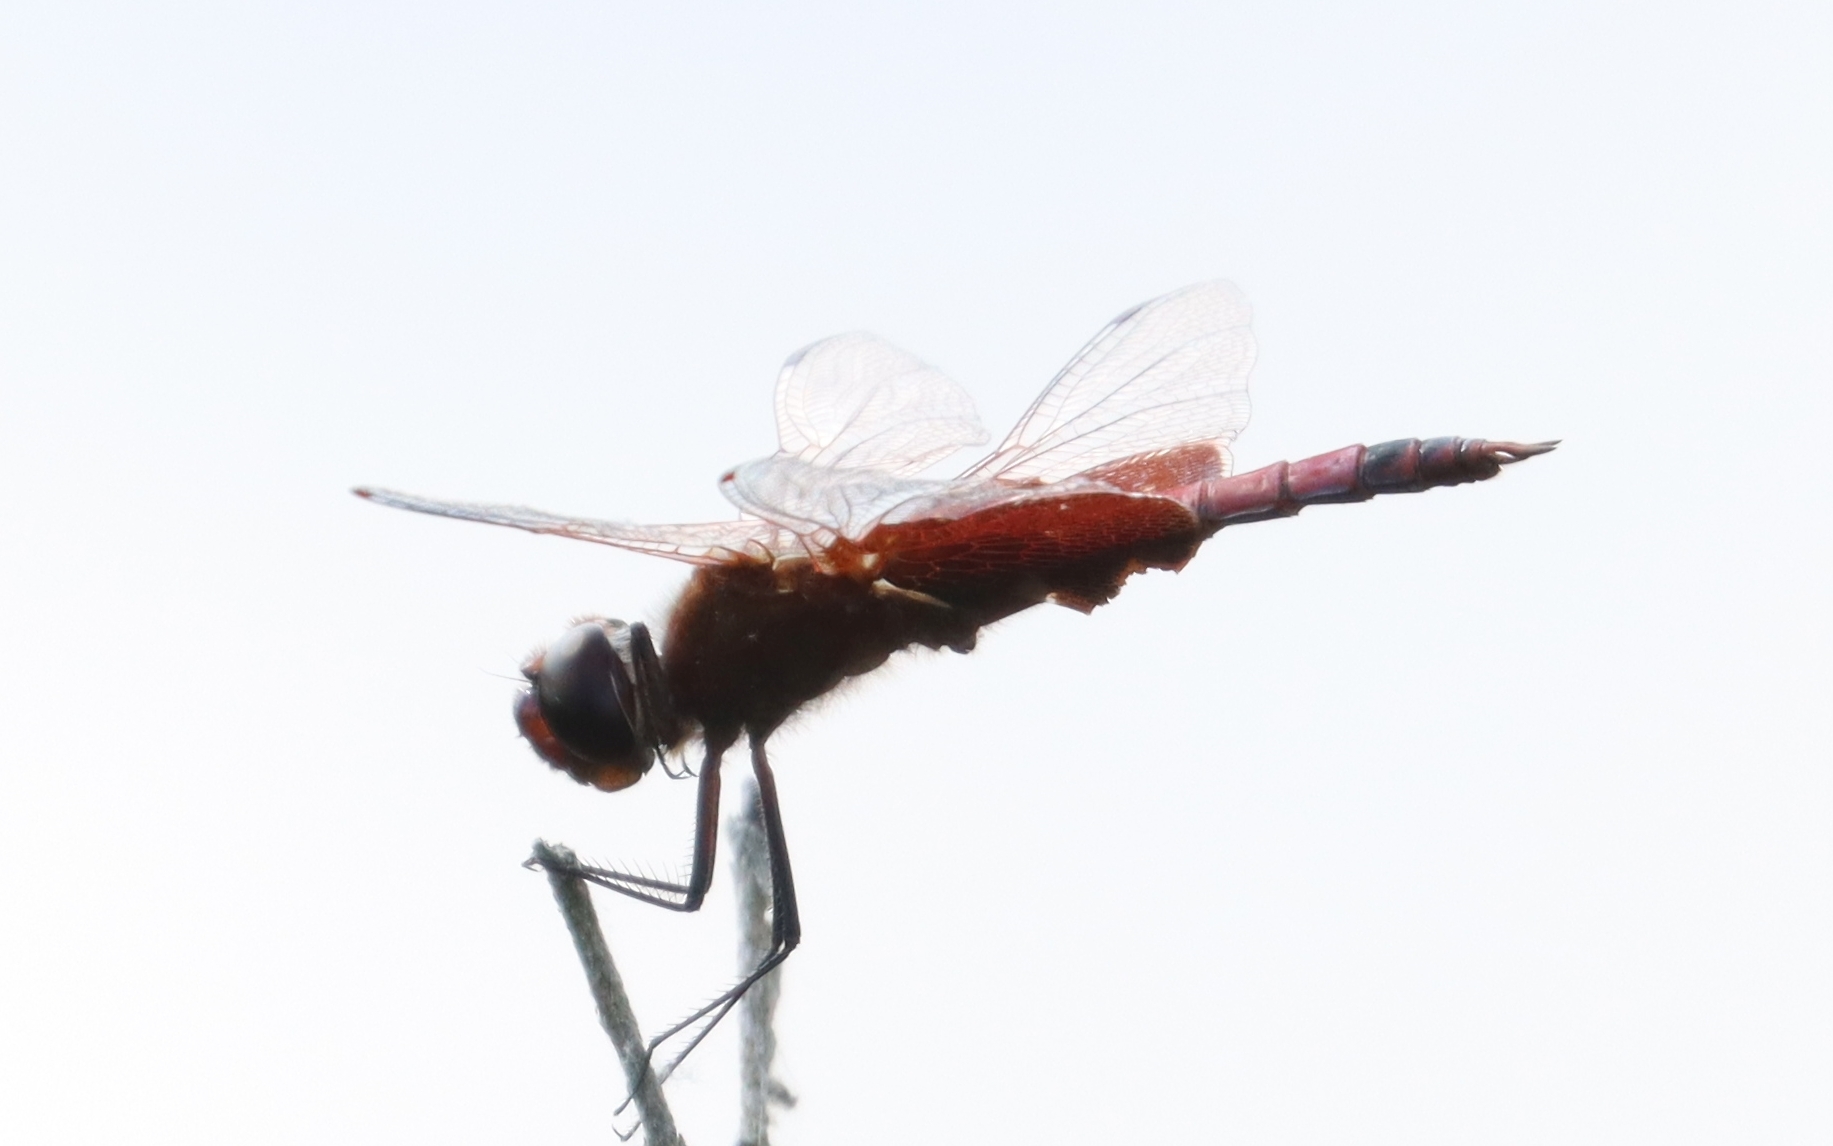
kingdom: Animalia
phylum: Arthropoda
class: Insecta
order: Odonata
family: Libellulidae
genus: Tramea
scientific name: Tramea carolina
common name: Carolina saddlebags
